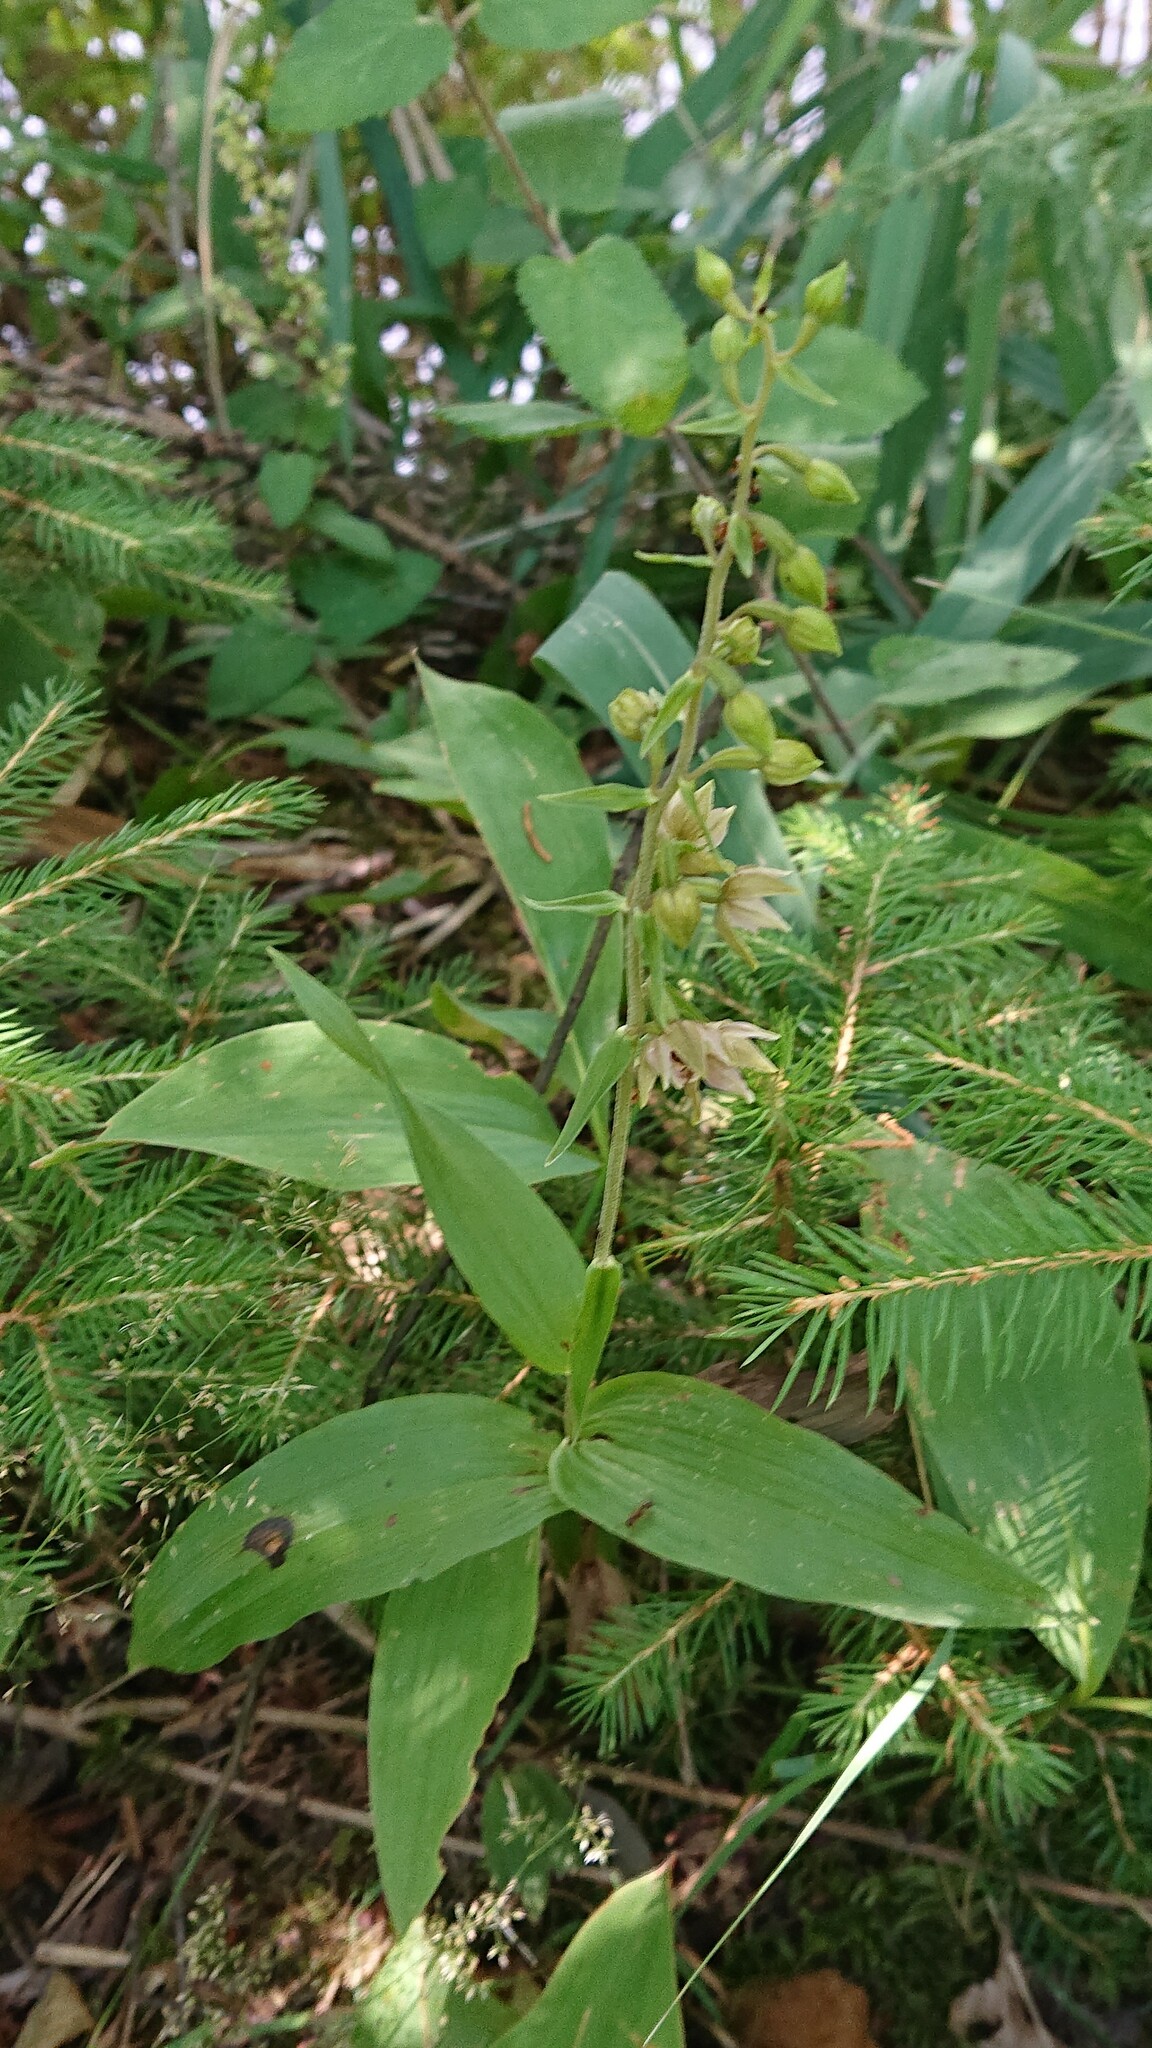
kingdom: Plantae
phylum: Tracheophyta
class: Liliopsida
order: Asparagales
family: Orchidaceae
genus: Epipactis
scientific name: Epipactis helleborine
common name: Broad-leaved helleborine
